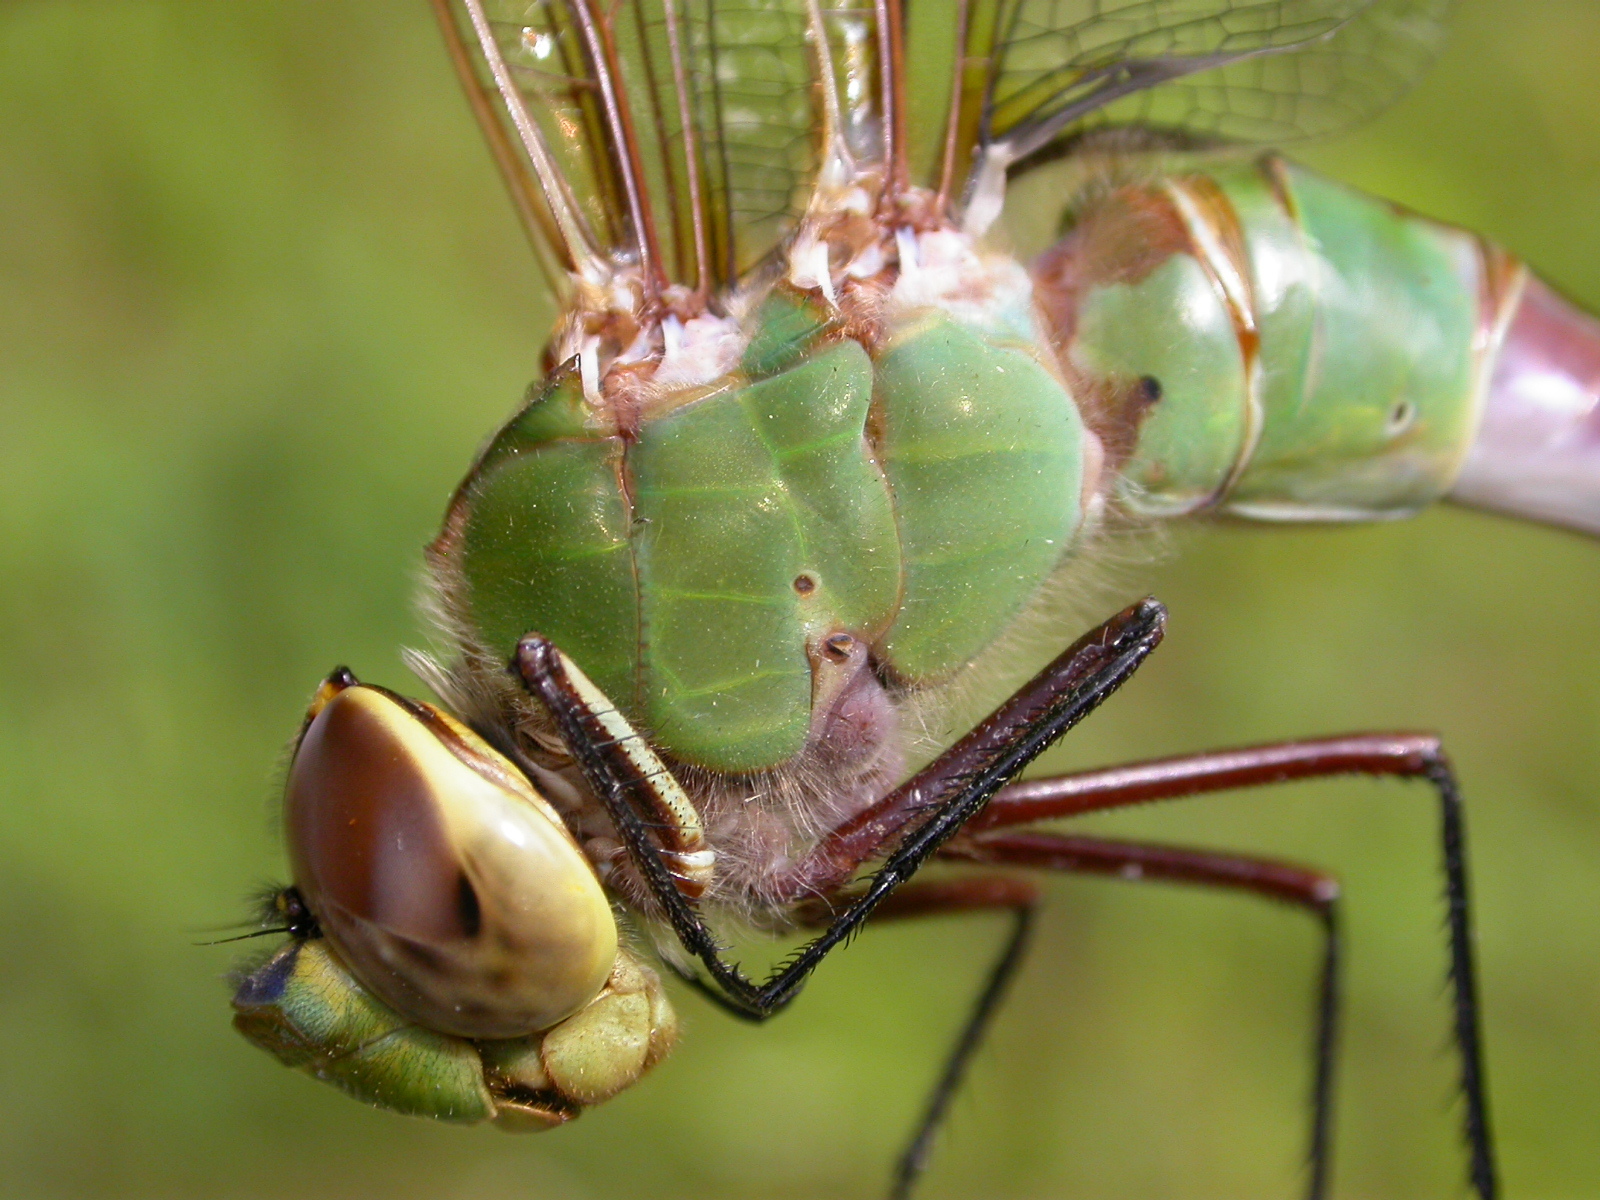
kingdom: Animalia
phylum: Arthropoda
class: Insecta
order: Odonata
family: Aeshnidae
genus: Anax
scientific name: Anax junius
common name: Common green darner
